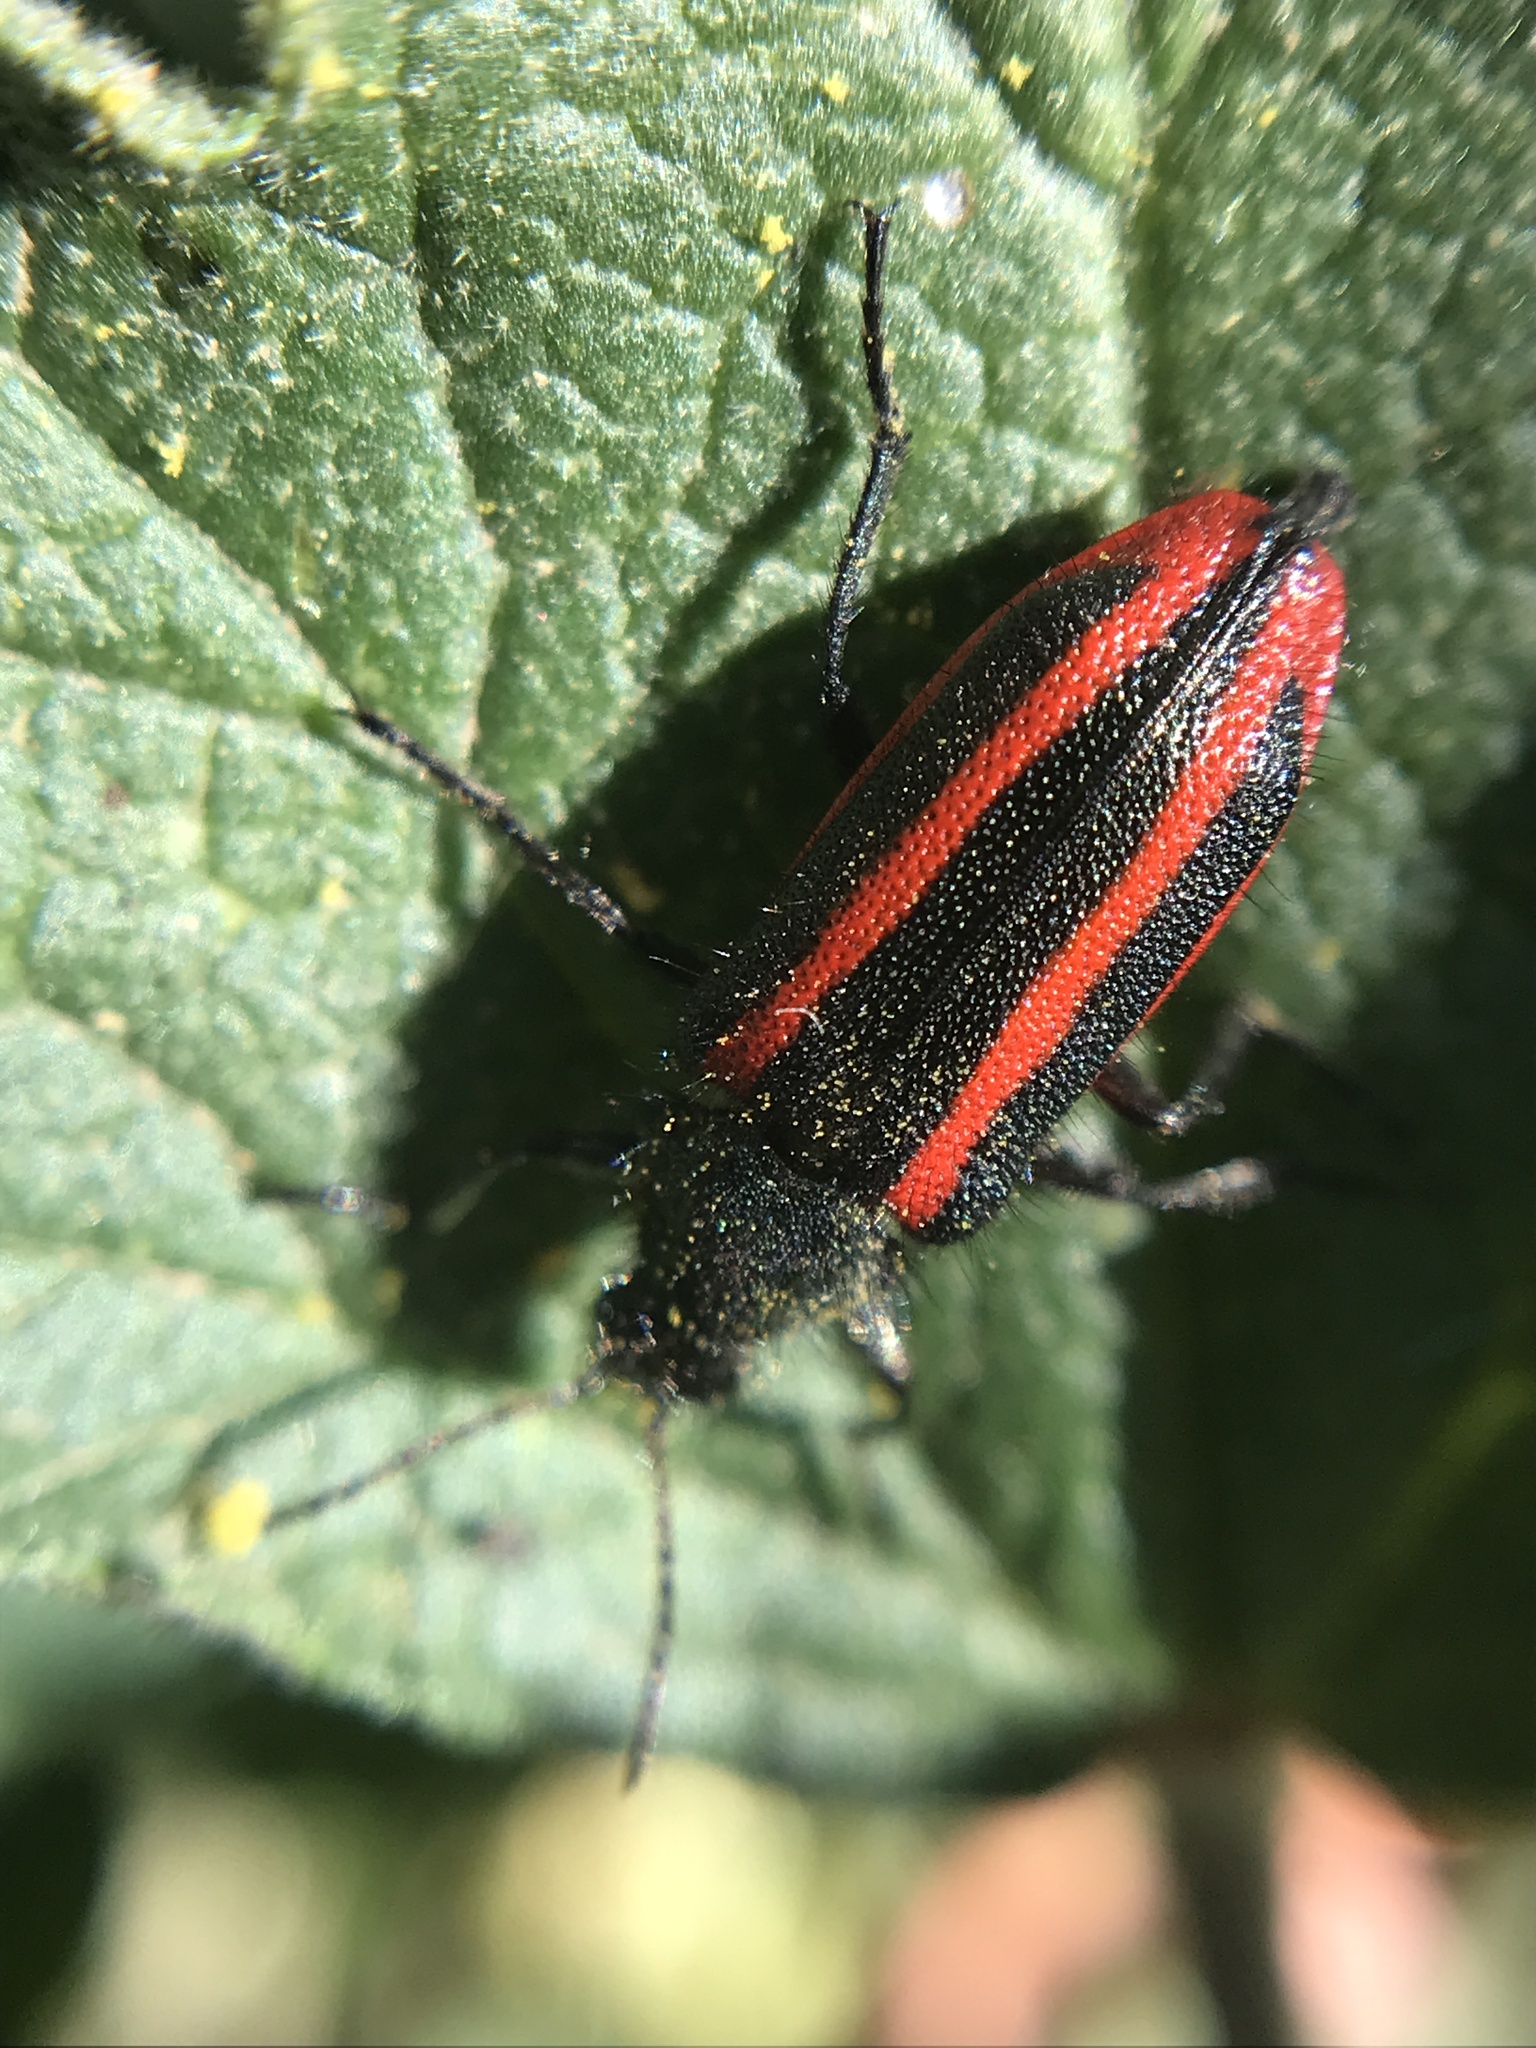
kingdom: Animalia
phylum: Arthropoda
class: Insecta
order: Coleoptera
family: Melyridae
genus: Astylus
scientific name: Astylus
